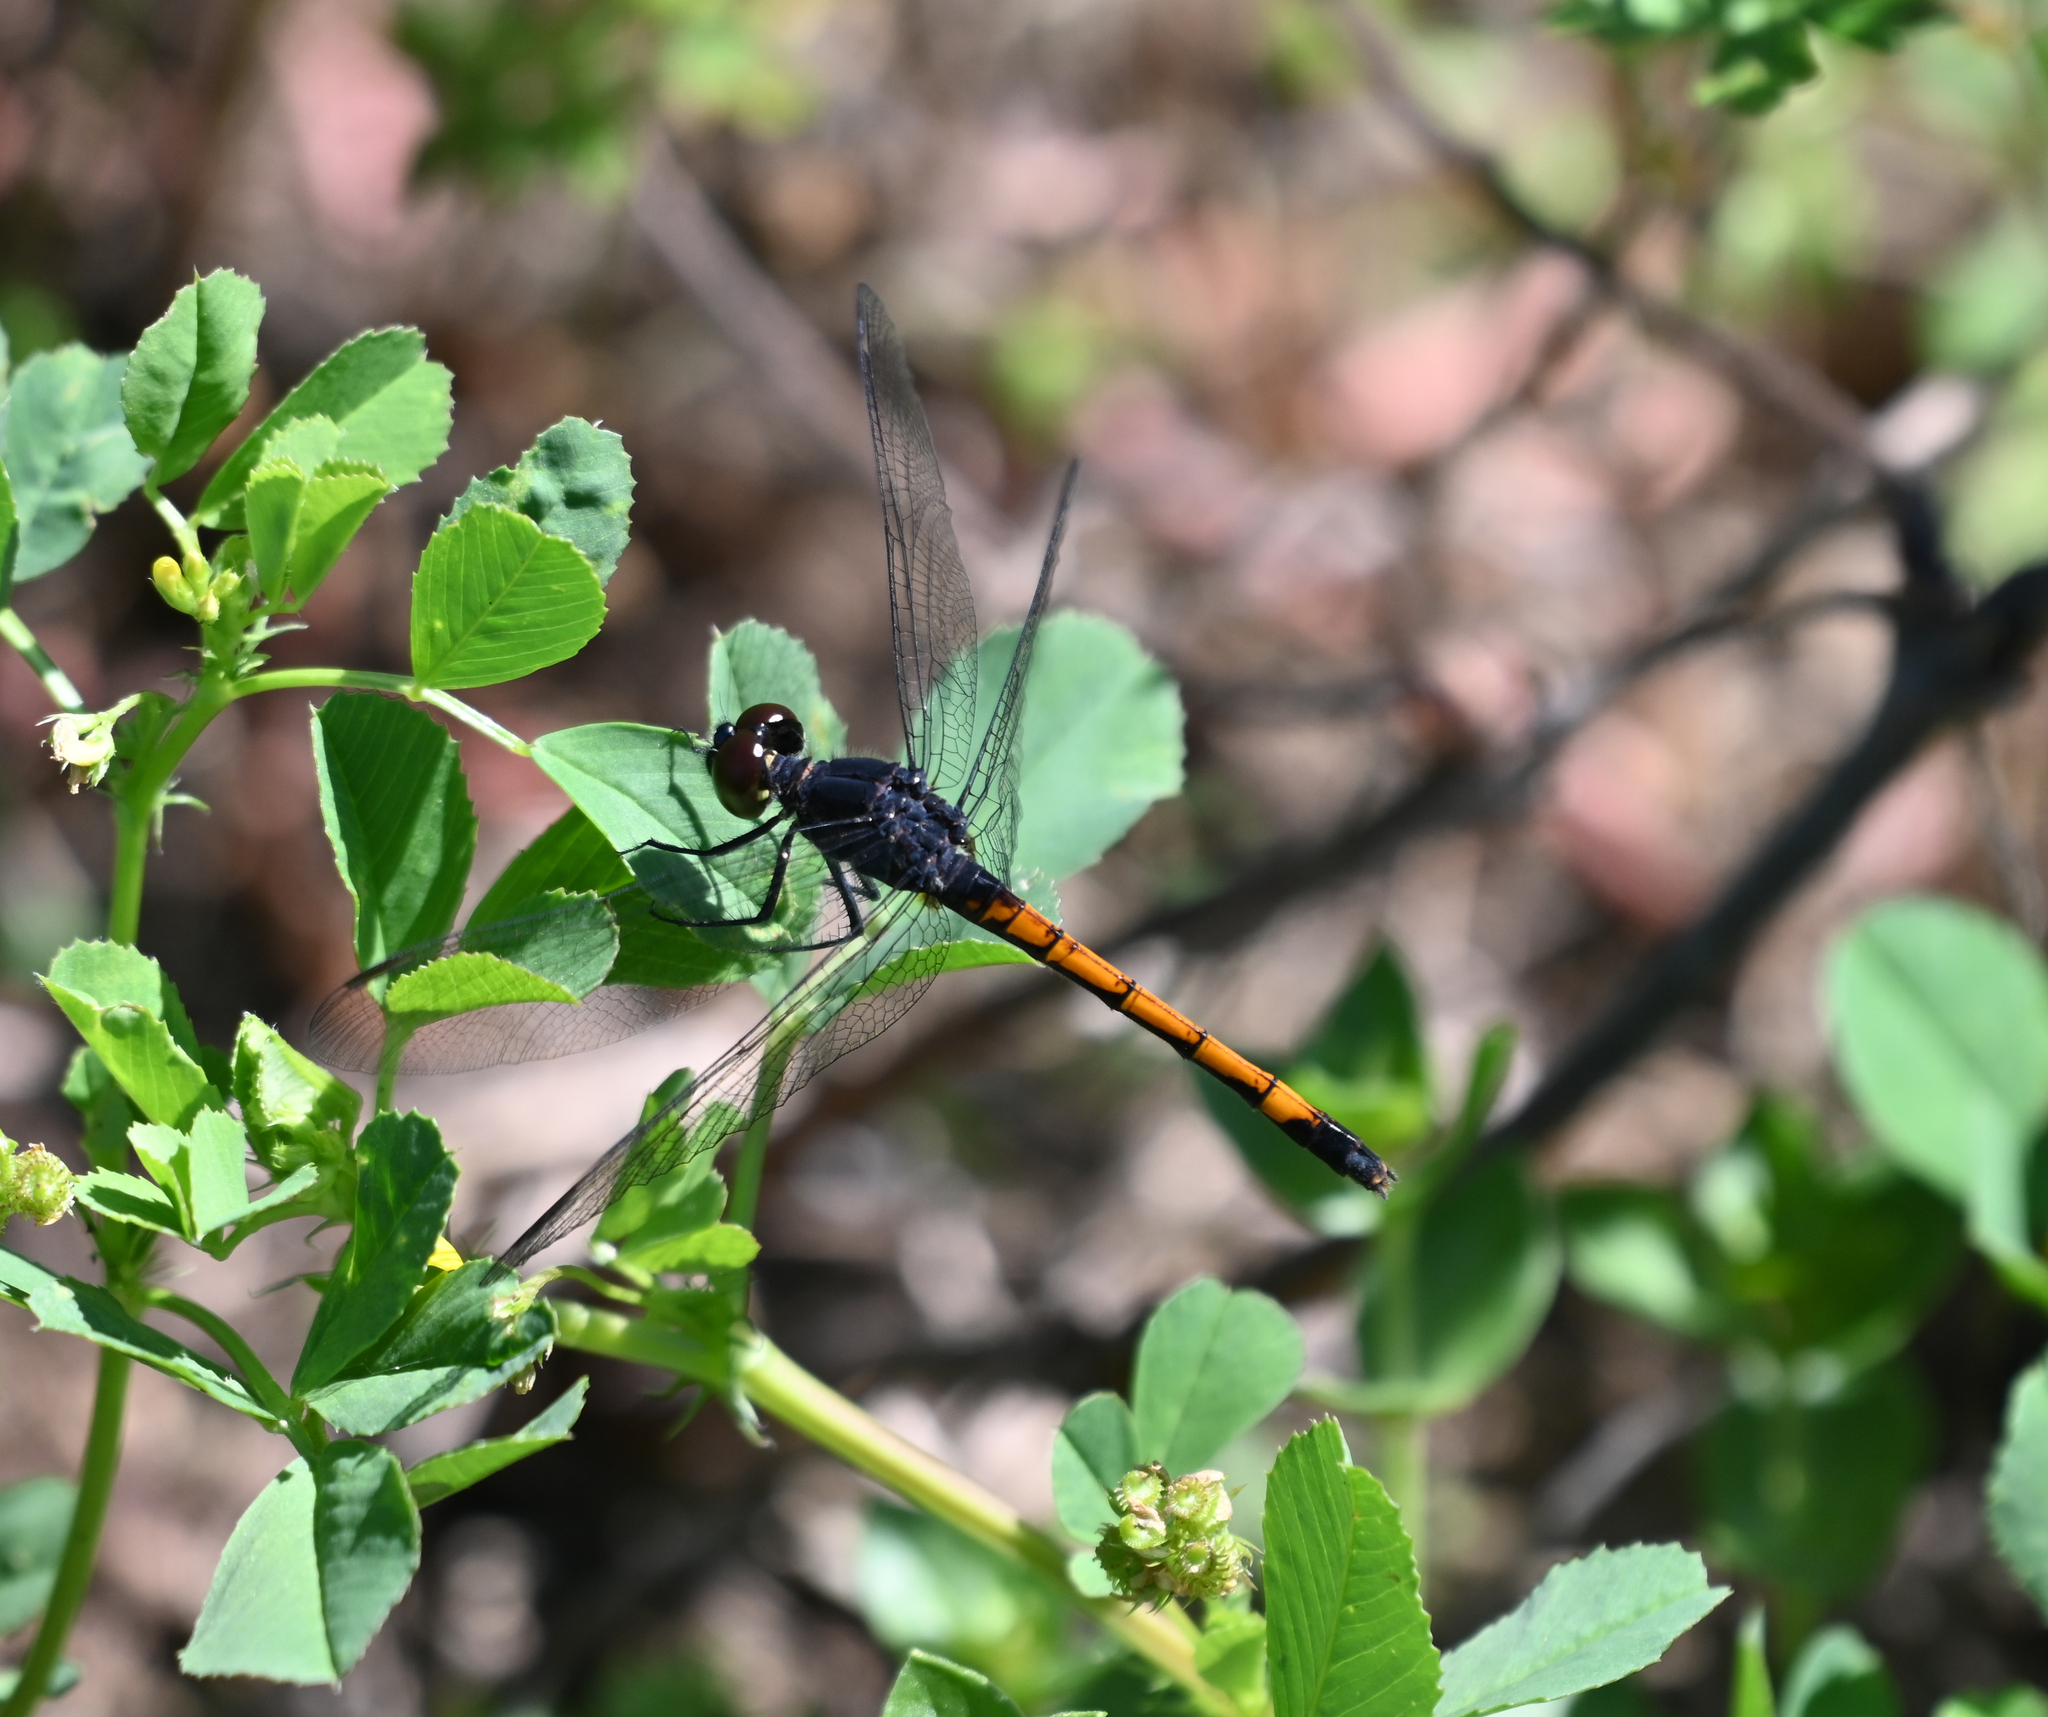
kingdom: Animalia
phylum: Arthropoda
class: Insecta
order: Odonata
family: Libellulidae
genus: Erythrodiplax
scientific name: Erythrodiplax berenice
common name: Seaside dragonlet
